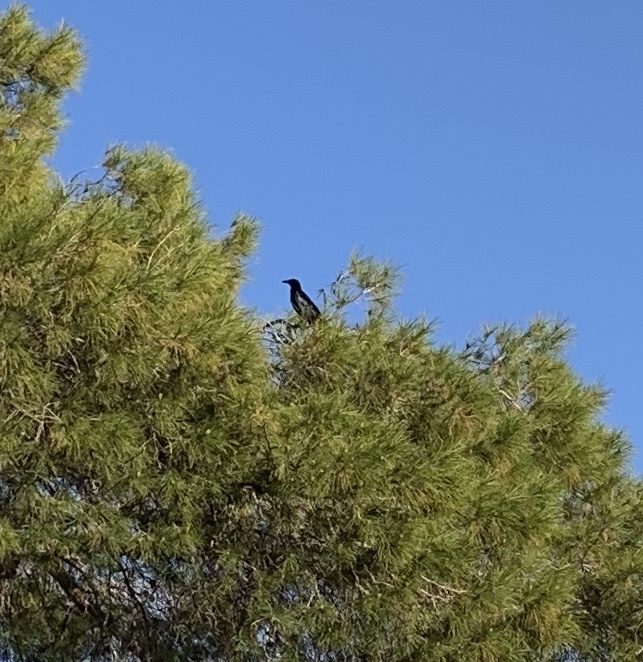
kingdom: Animalia
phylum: Chordata
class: Aves
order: Passeriformes
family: Icteridae
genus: Quiscalus
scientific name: Quiscalus mexicanus
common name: Great-tailed grackle
